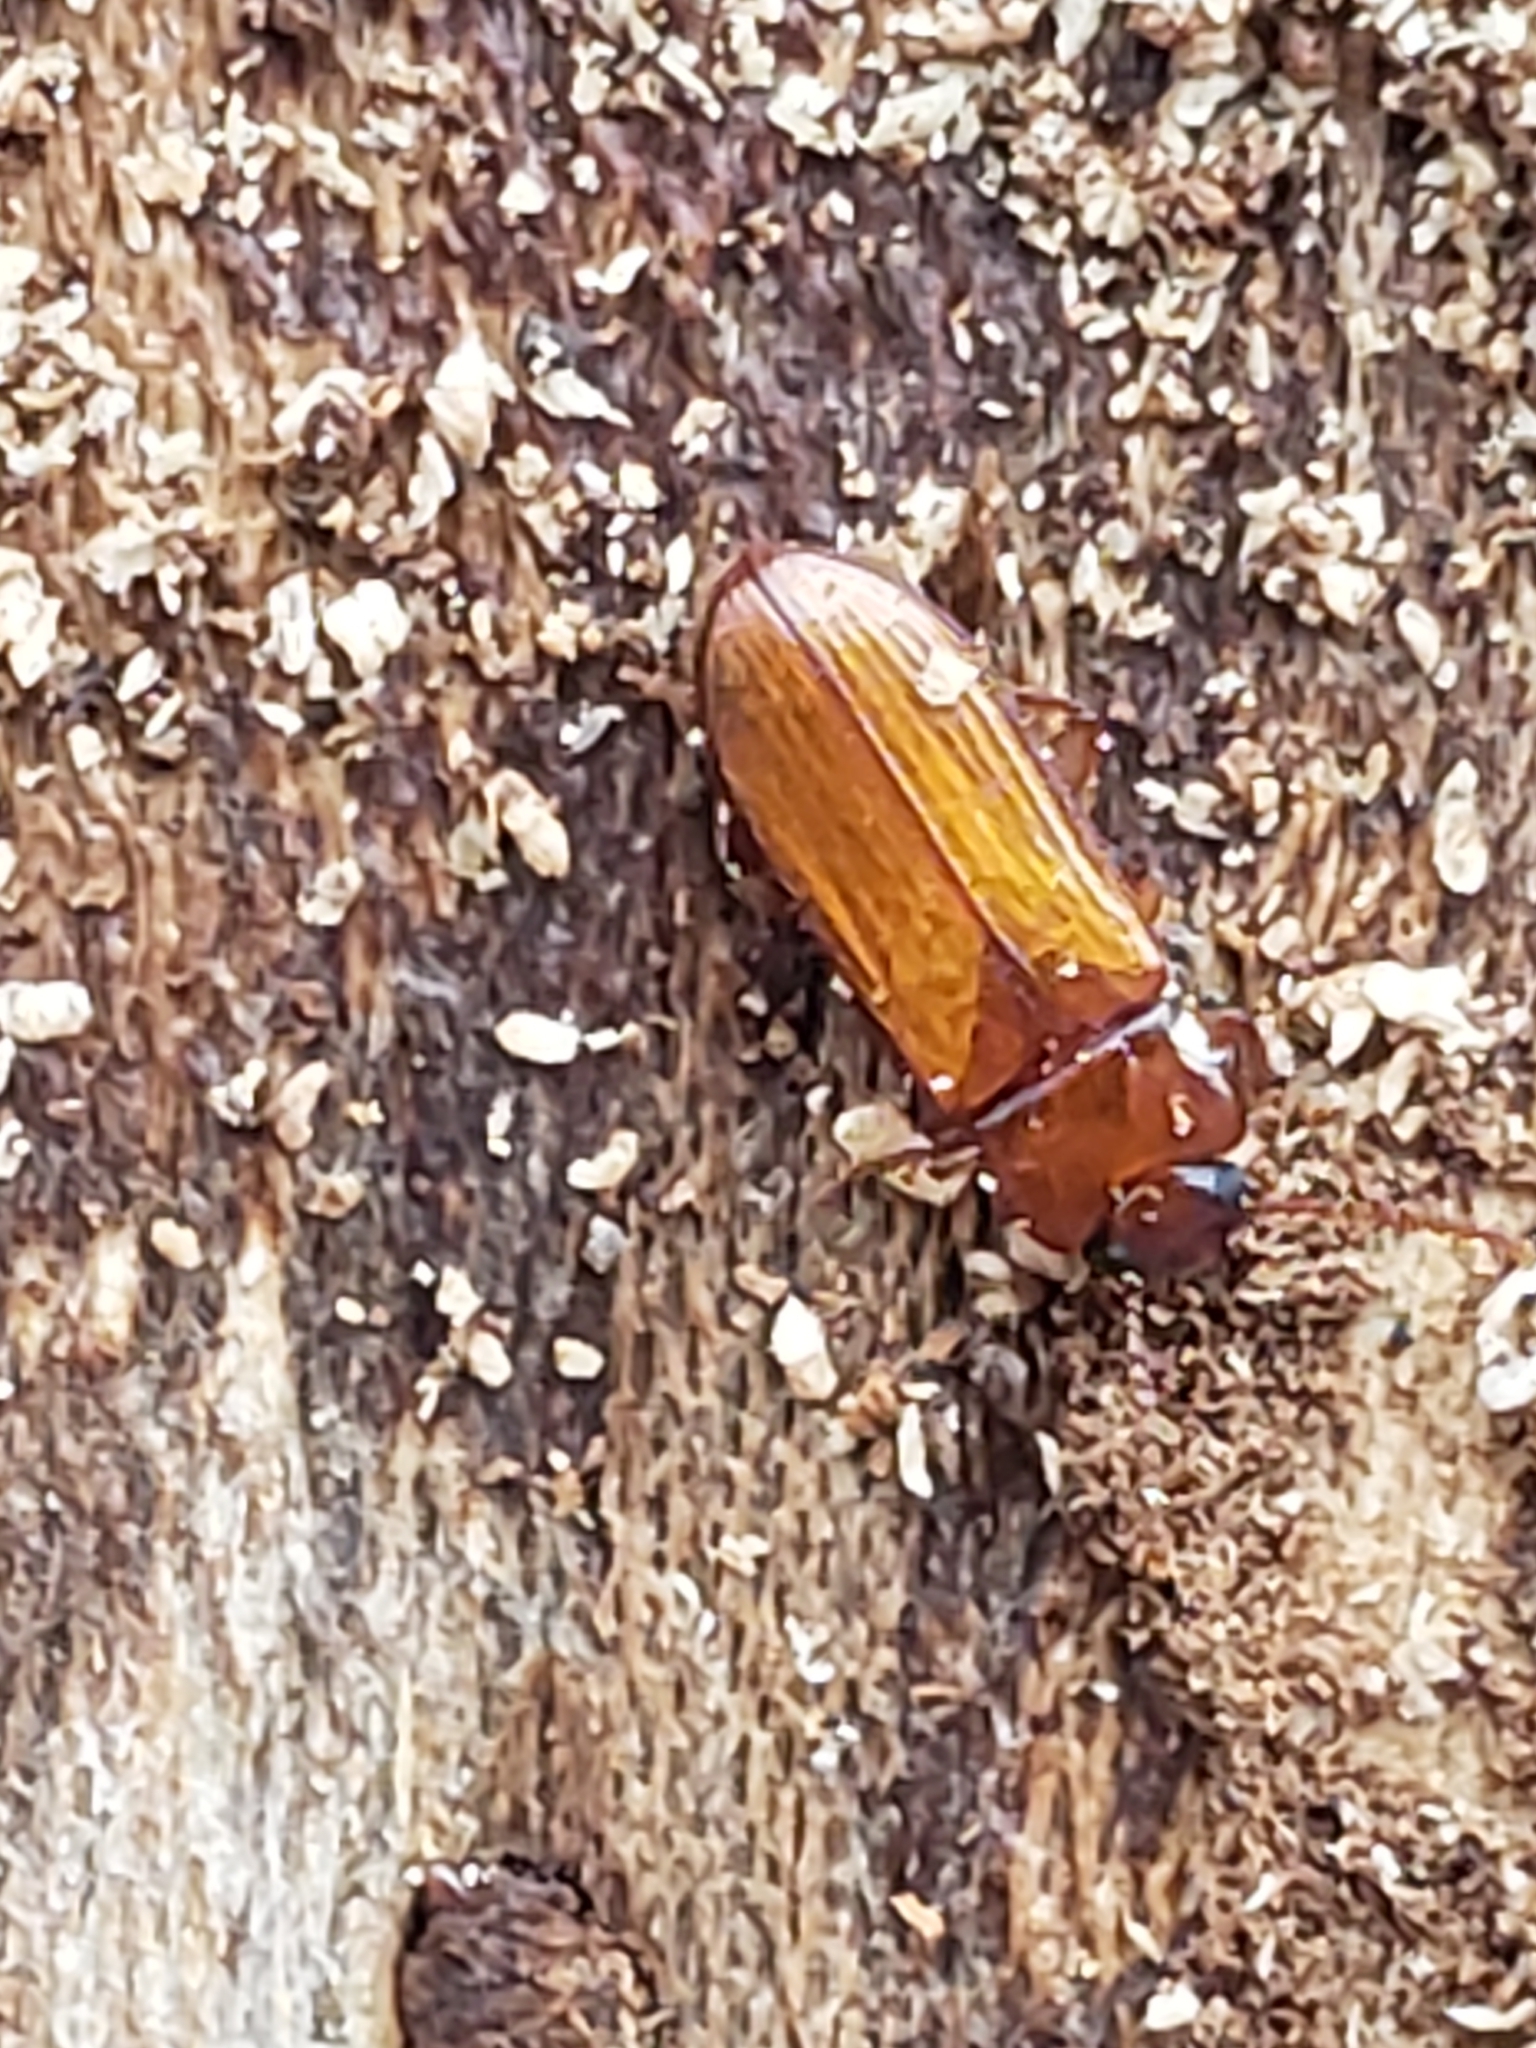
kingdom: Animalia
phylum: Arthropoda
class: Insecta
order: Coleoptera
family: Tenebrionidae
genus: Adelina
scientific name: Adelina pallida
